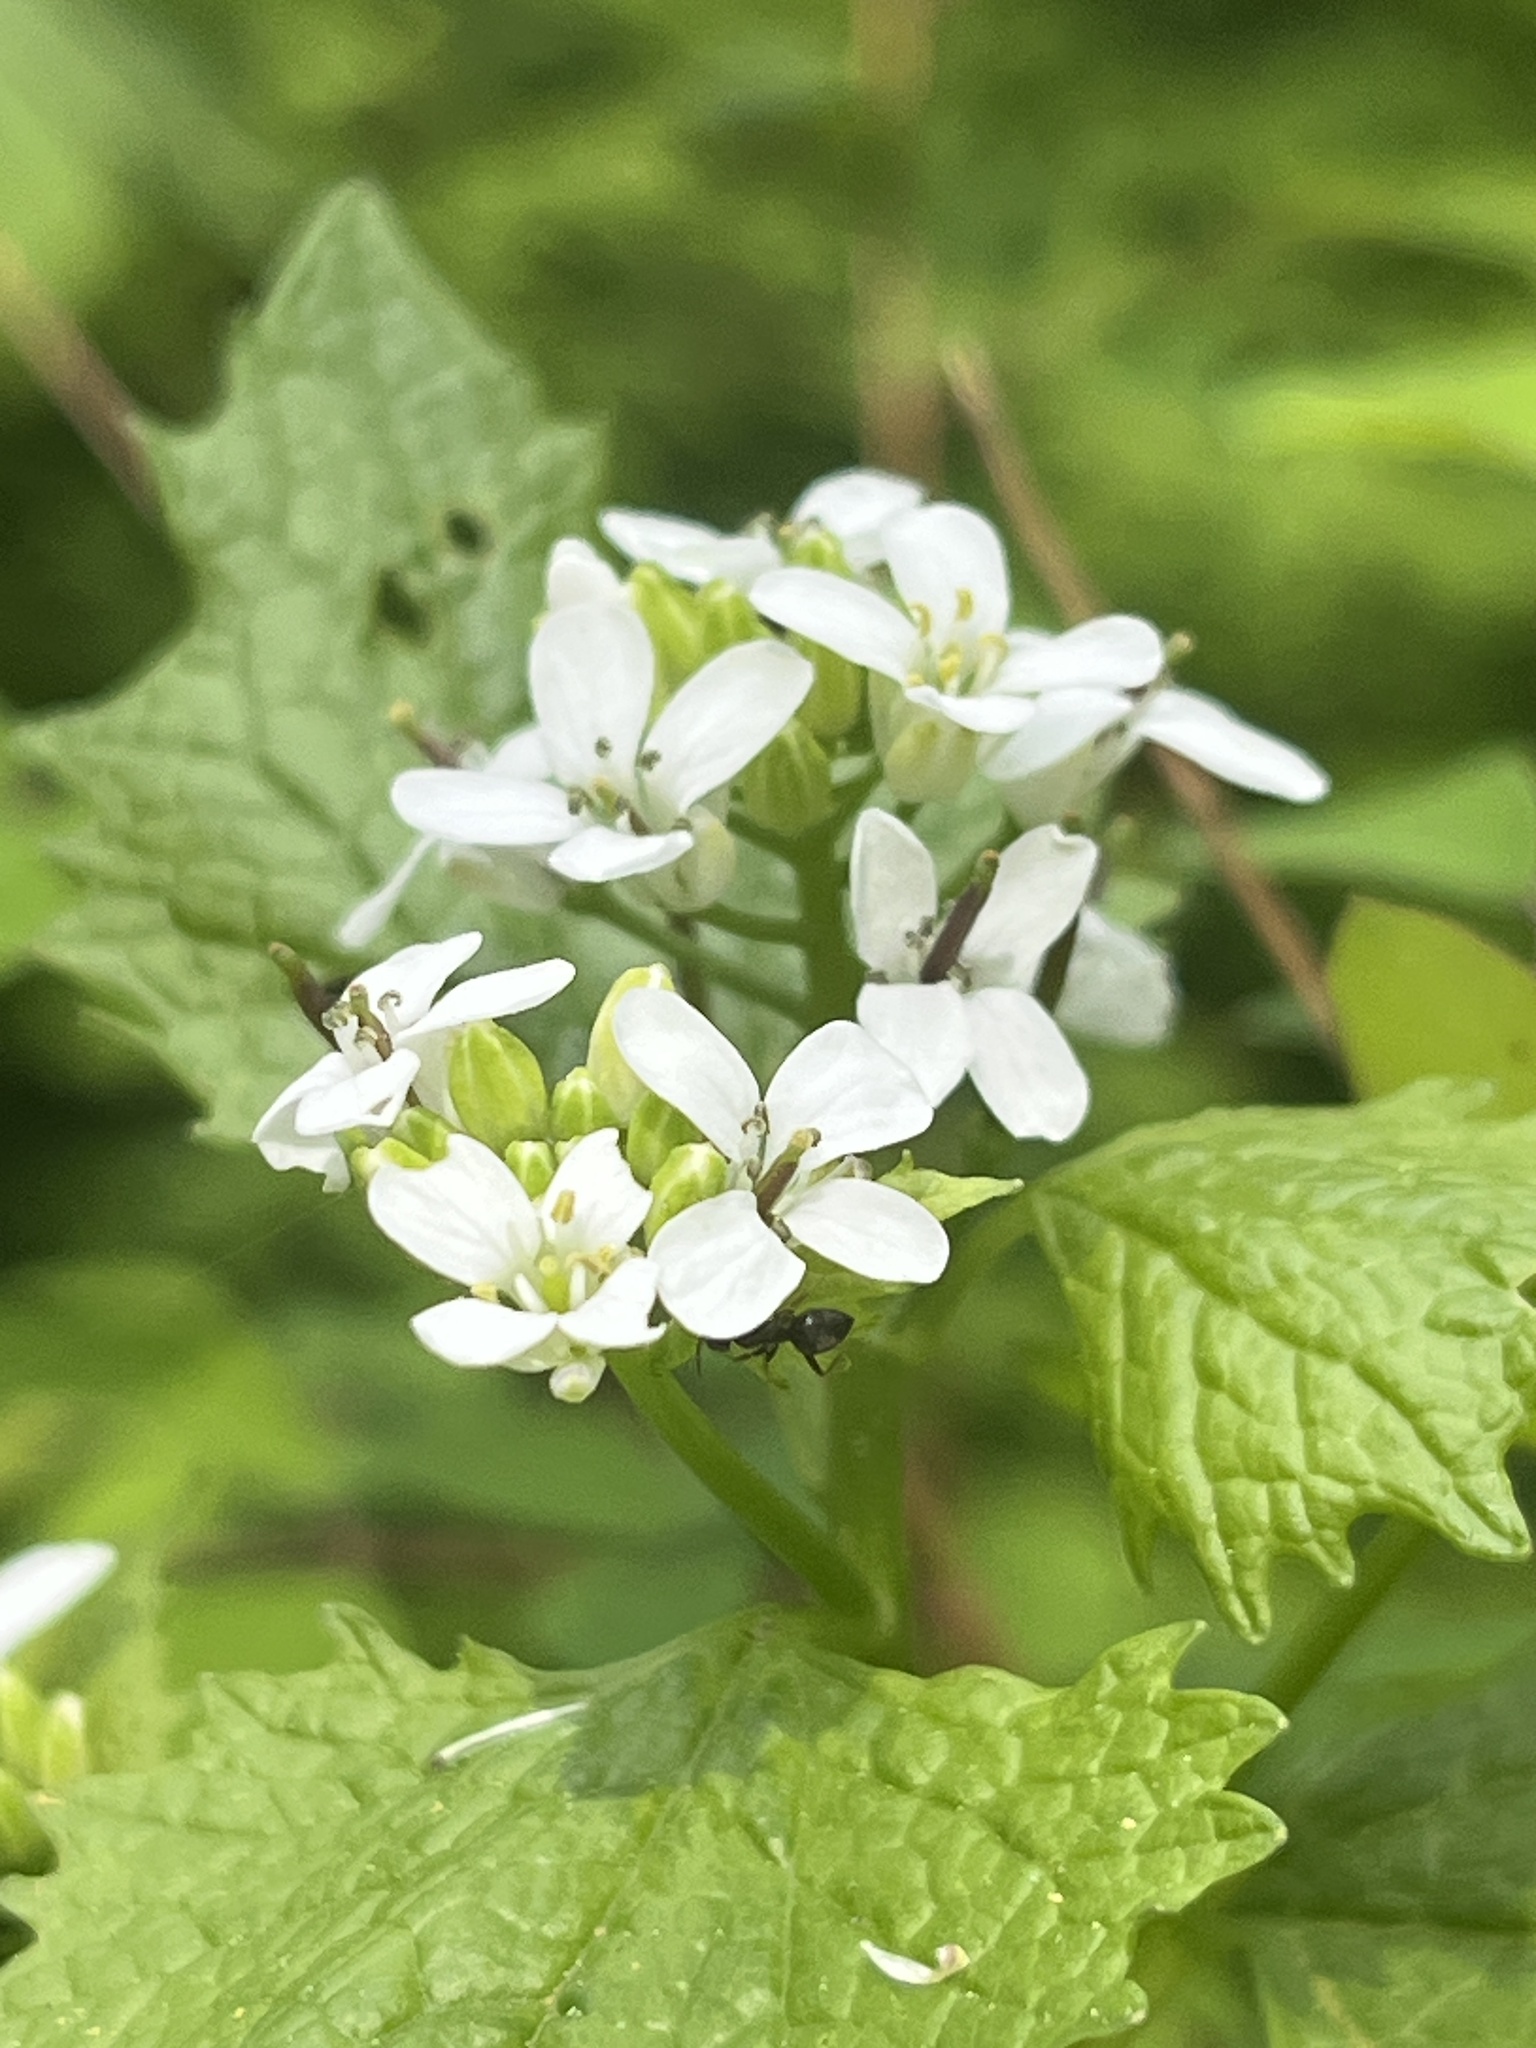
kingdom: Plantae
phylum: Tracheophyta
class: Magnoliopsida
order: Brassicales
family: Brassicaceae
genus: Alliaria
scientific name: Alliaria petiolata
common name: Garlic mustard
